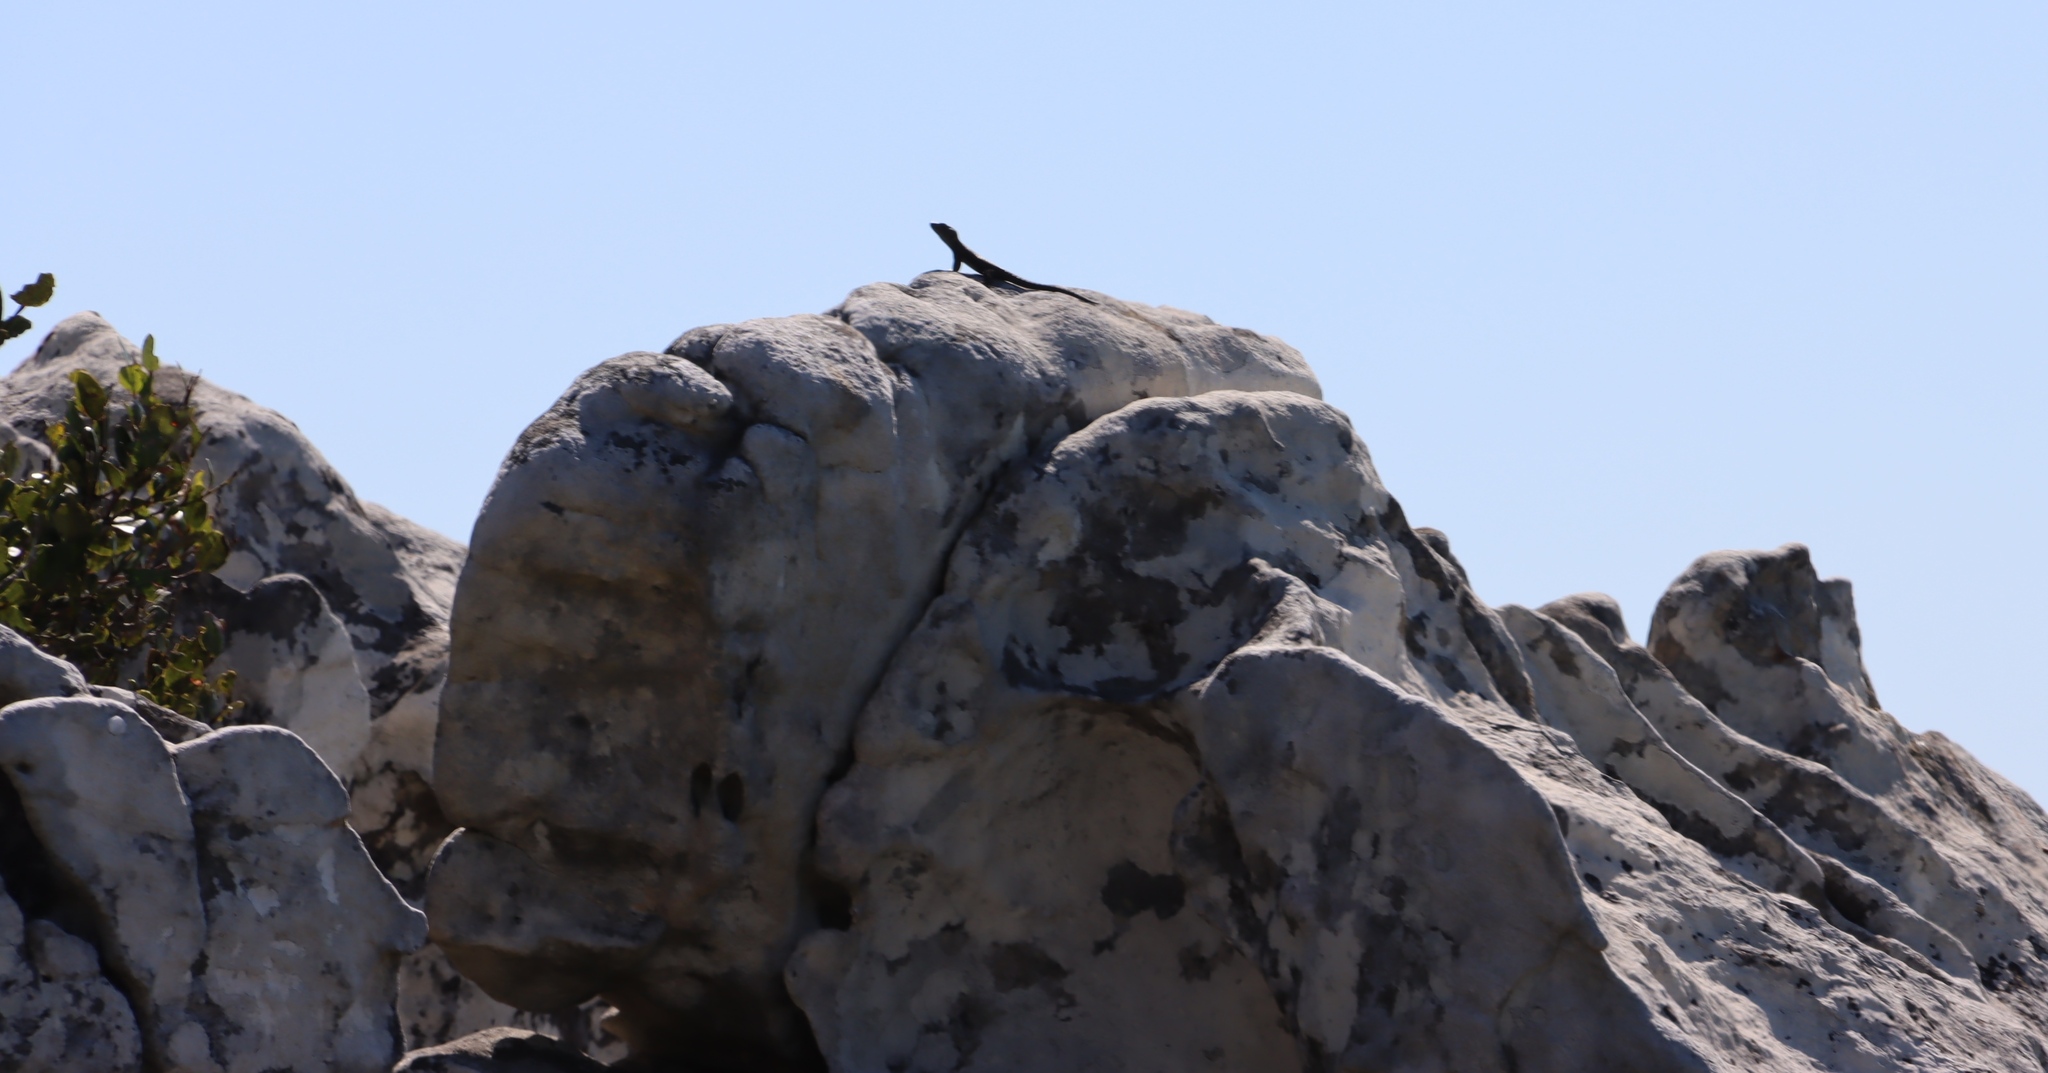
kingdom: Animalia
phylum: Chordata
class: Squamata
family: Cordylidae
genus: Cordylus
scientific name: Cordylus niger
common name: Black girdled lizard
